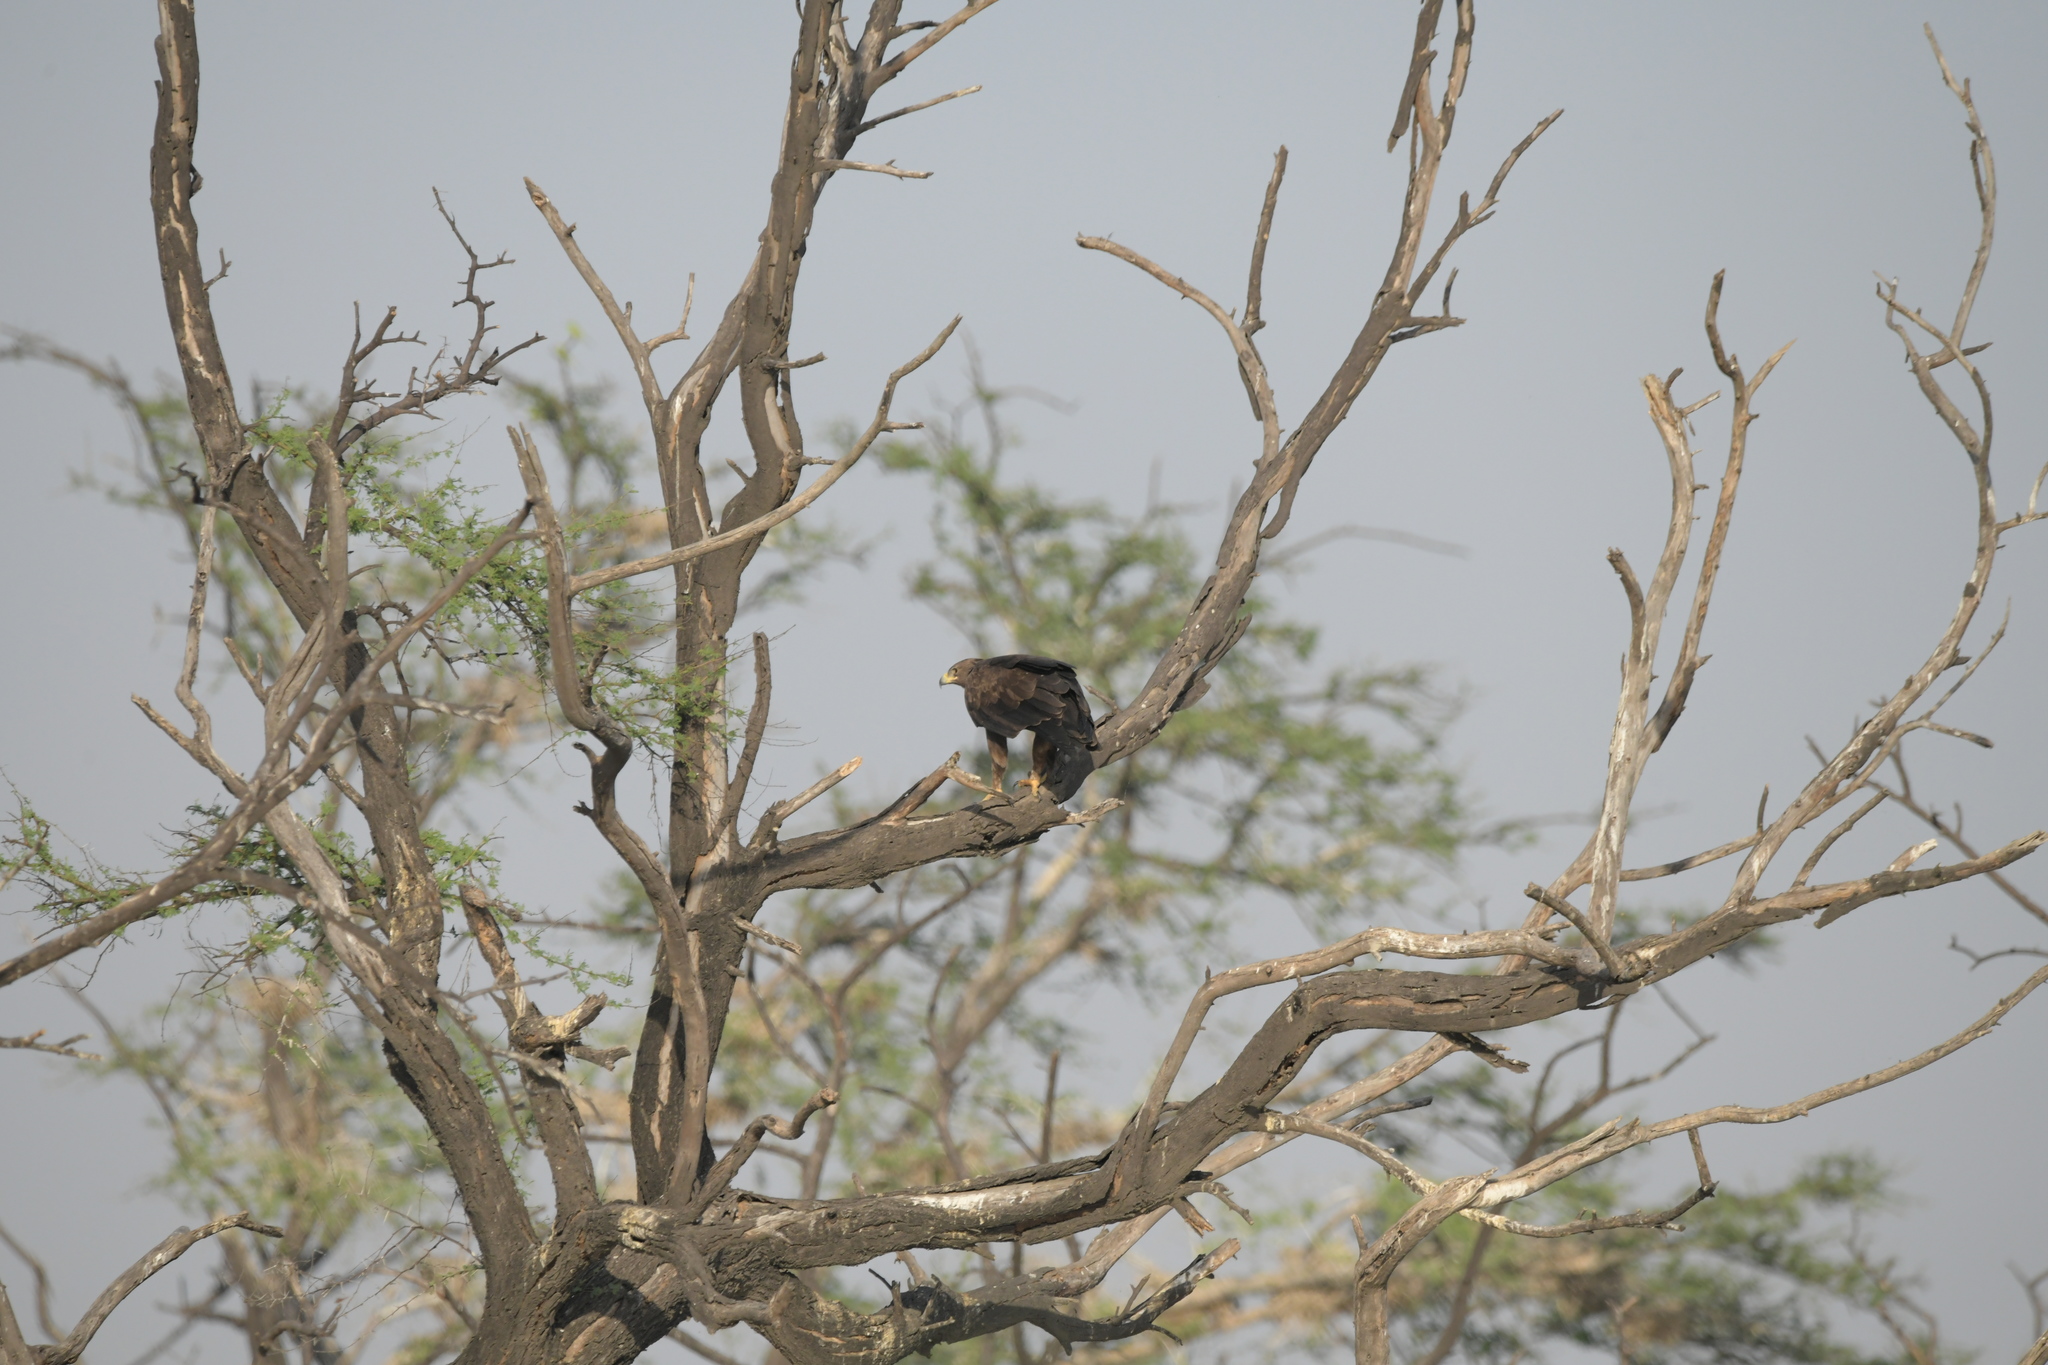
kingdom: Animalia
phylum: Chordata
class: Aves
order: Accipitriformes
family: Accipitridae
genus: Aquila
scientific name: Aquila clanga
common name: Greater spotted eagle
